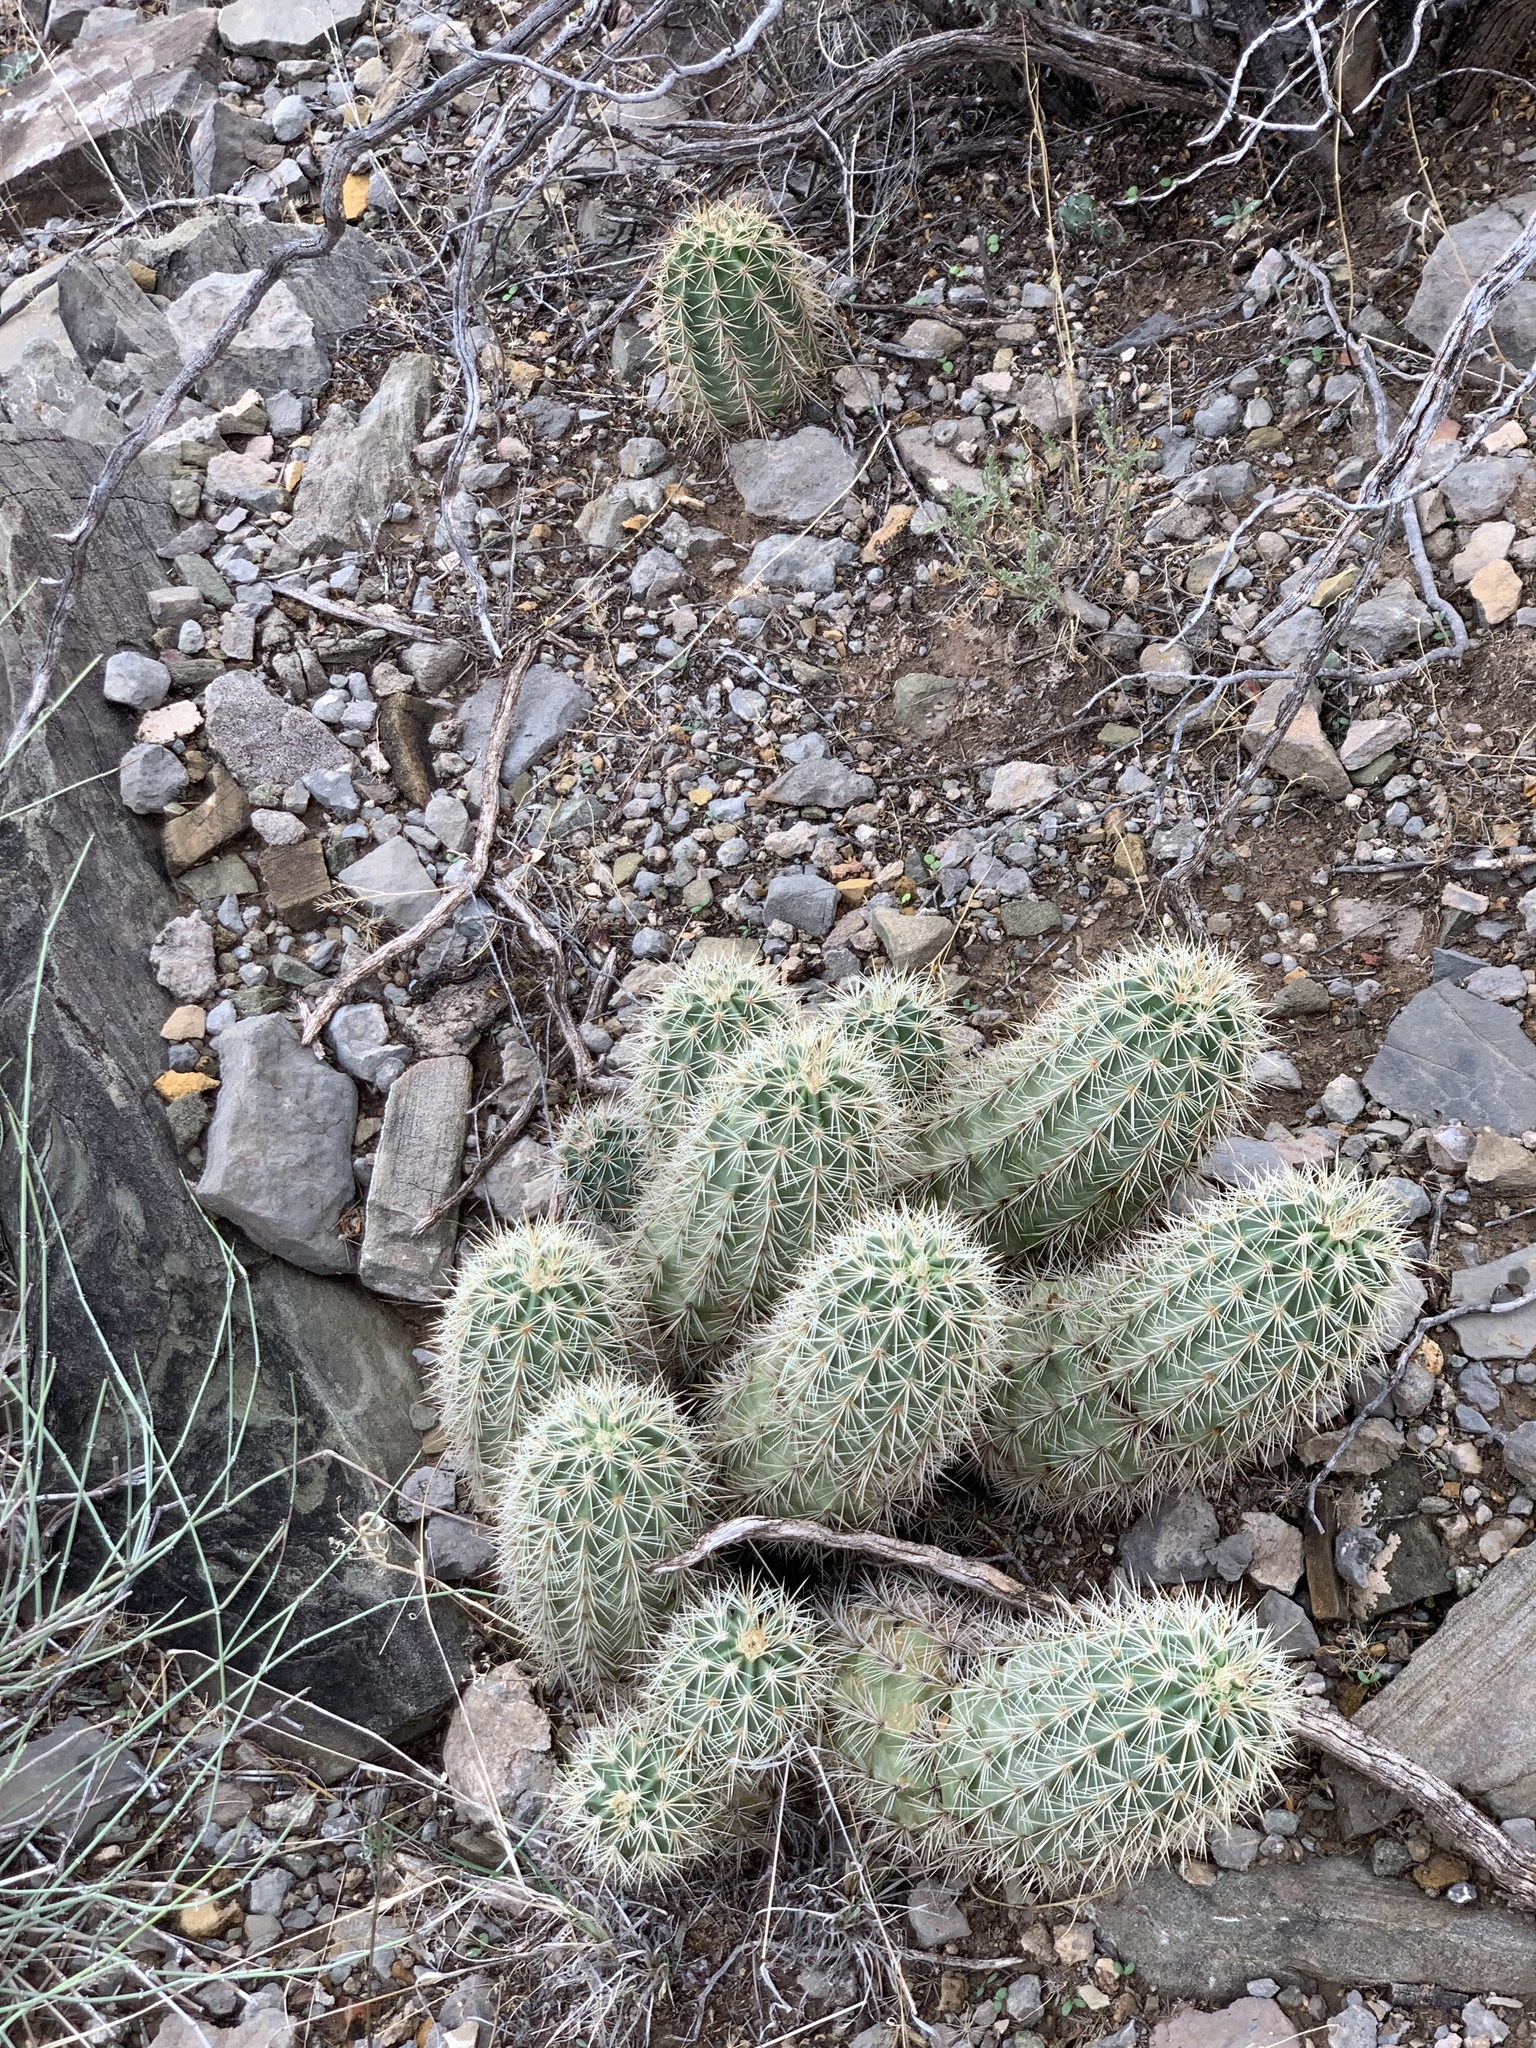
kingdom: Plantae
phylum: Tracheophyta
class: Magnoliopsida
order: Caryophyllales
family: Cactaceae
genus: Echinocereus
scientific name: Echinocereus coccineus
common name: Scarlet hedgehog cactus
